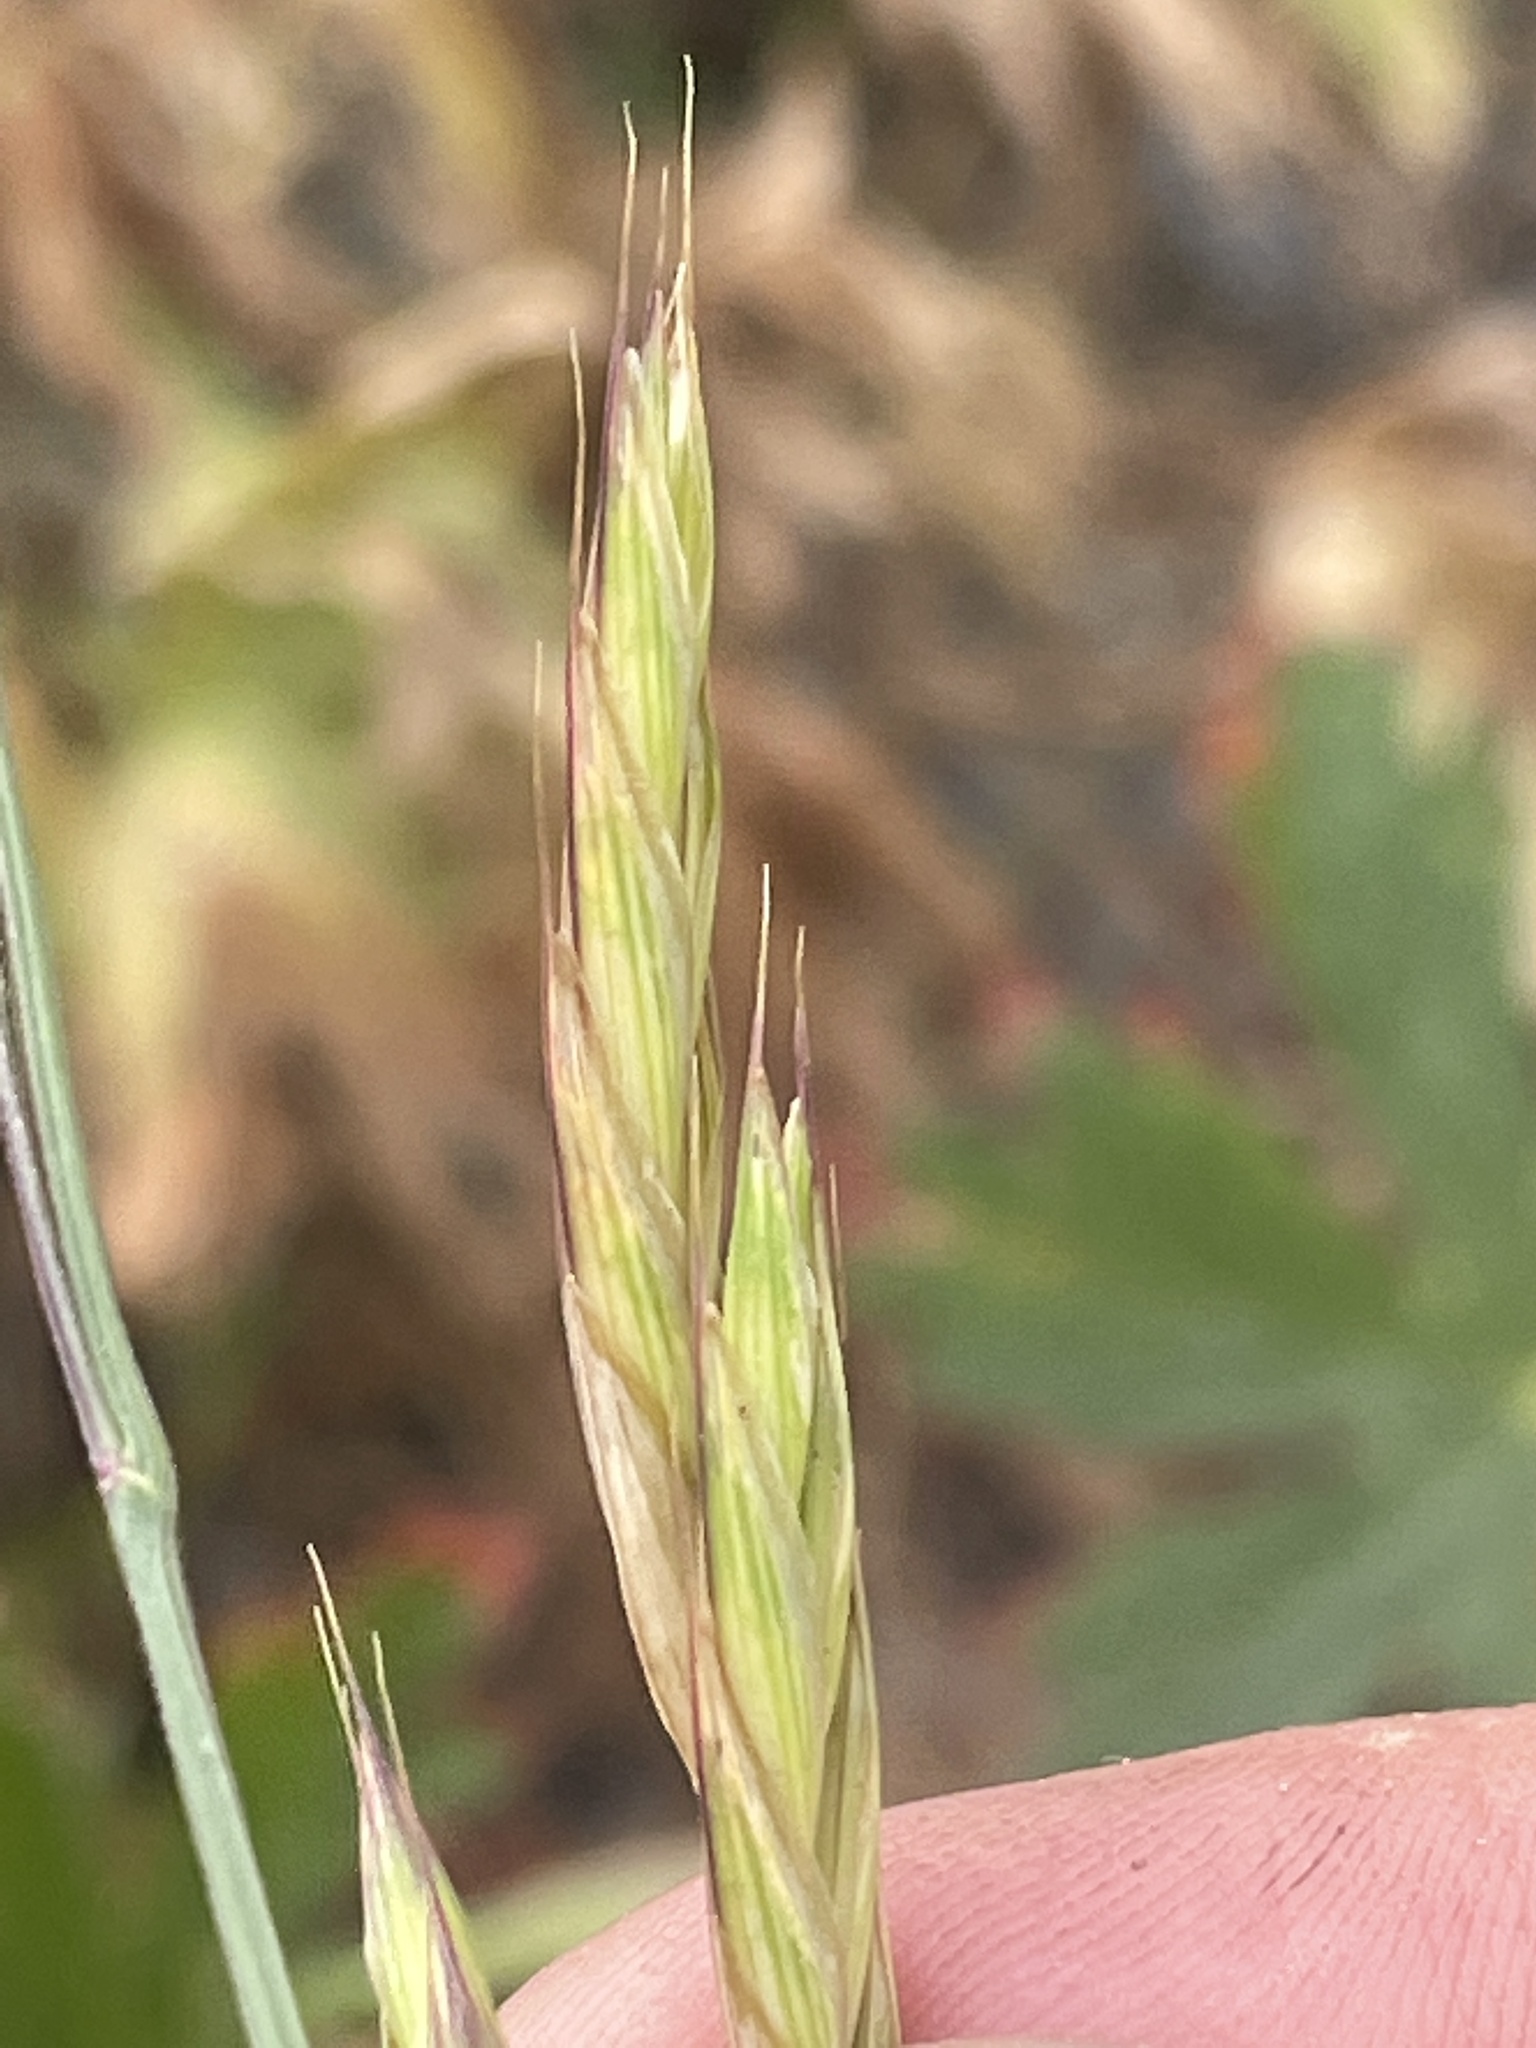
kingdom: Plantae
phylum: Tracheophyta
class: Liliopsida
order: Poales
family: Poaceae
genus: Bromus
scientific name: Bromus marginatus
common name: Western brome
